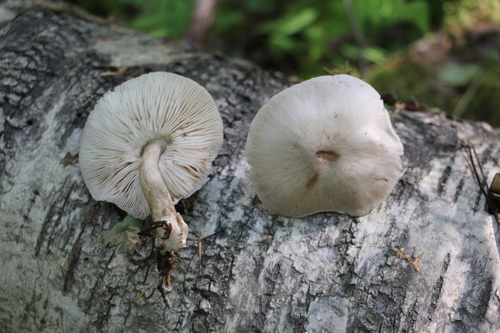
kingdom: Fungi
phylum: Basidiomycota
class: Agaricomycetes
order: Agaricales
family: Pluteaceae
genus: Pluteus
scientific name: Pluteus
